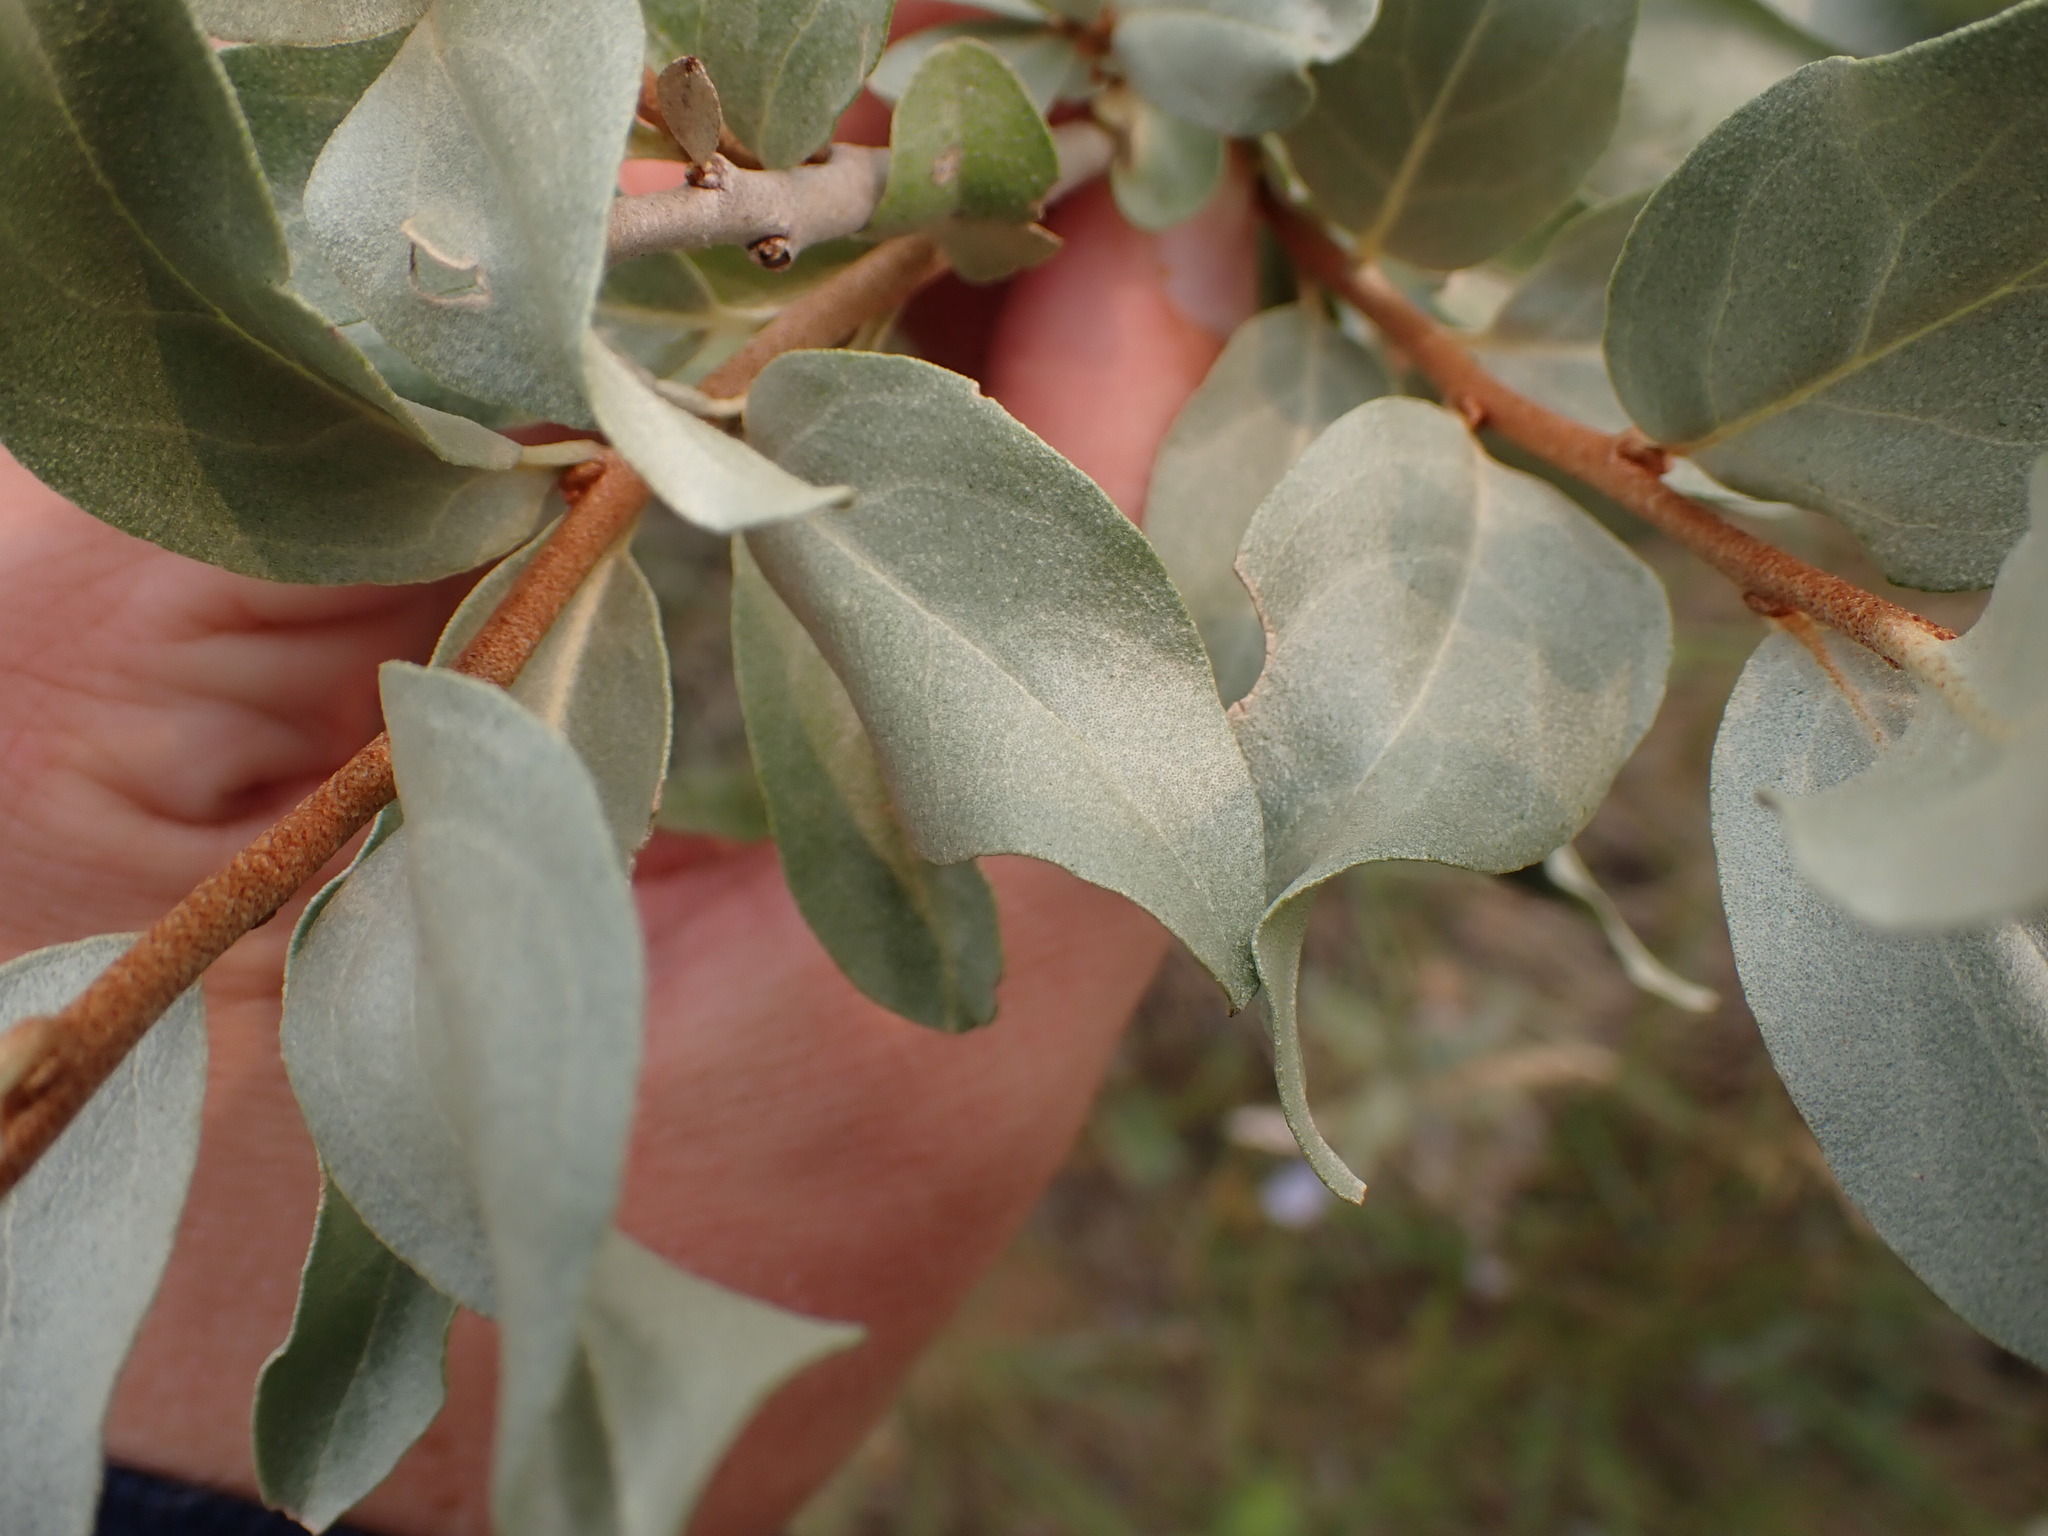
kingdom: Plantae
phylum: Tracheophyta
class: Magnoliopsida
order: Rosales
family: Elaeagnaceae
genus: Elaeagnus
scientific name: Elaeagnus commutata
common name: Silverberry
